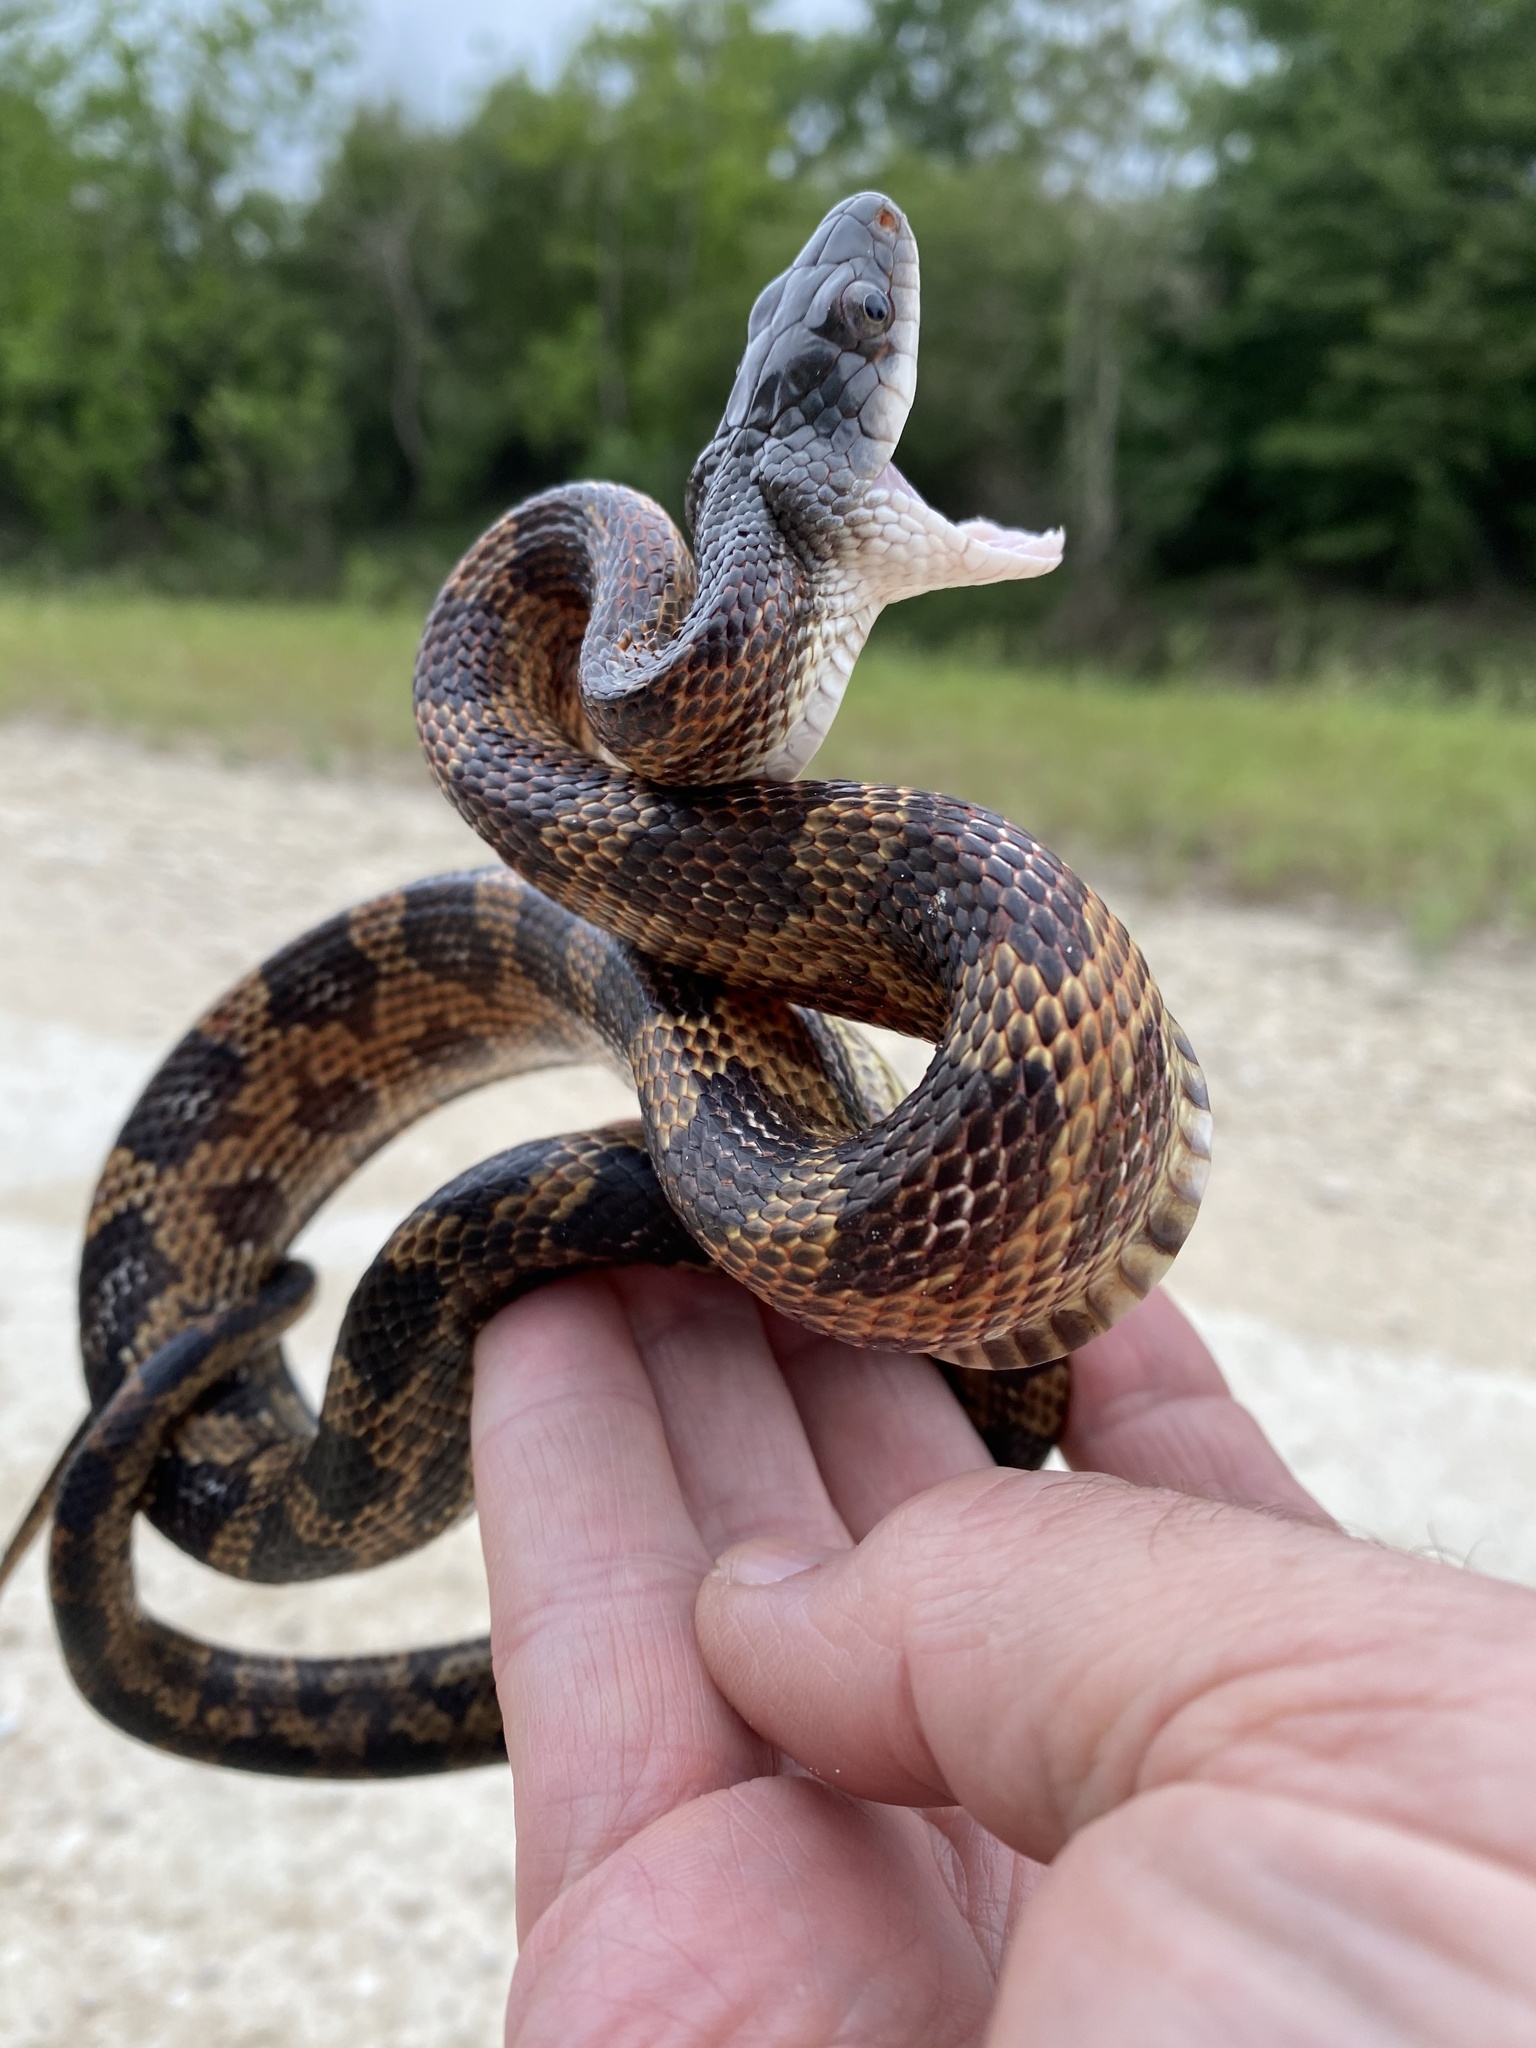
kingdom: Animalia
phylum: Chordata
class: Squamata
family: Colubridae
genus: Pantherophis
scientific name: Pantherophis obsoletus
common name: Black rat snake
